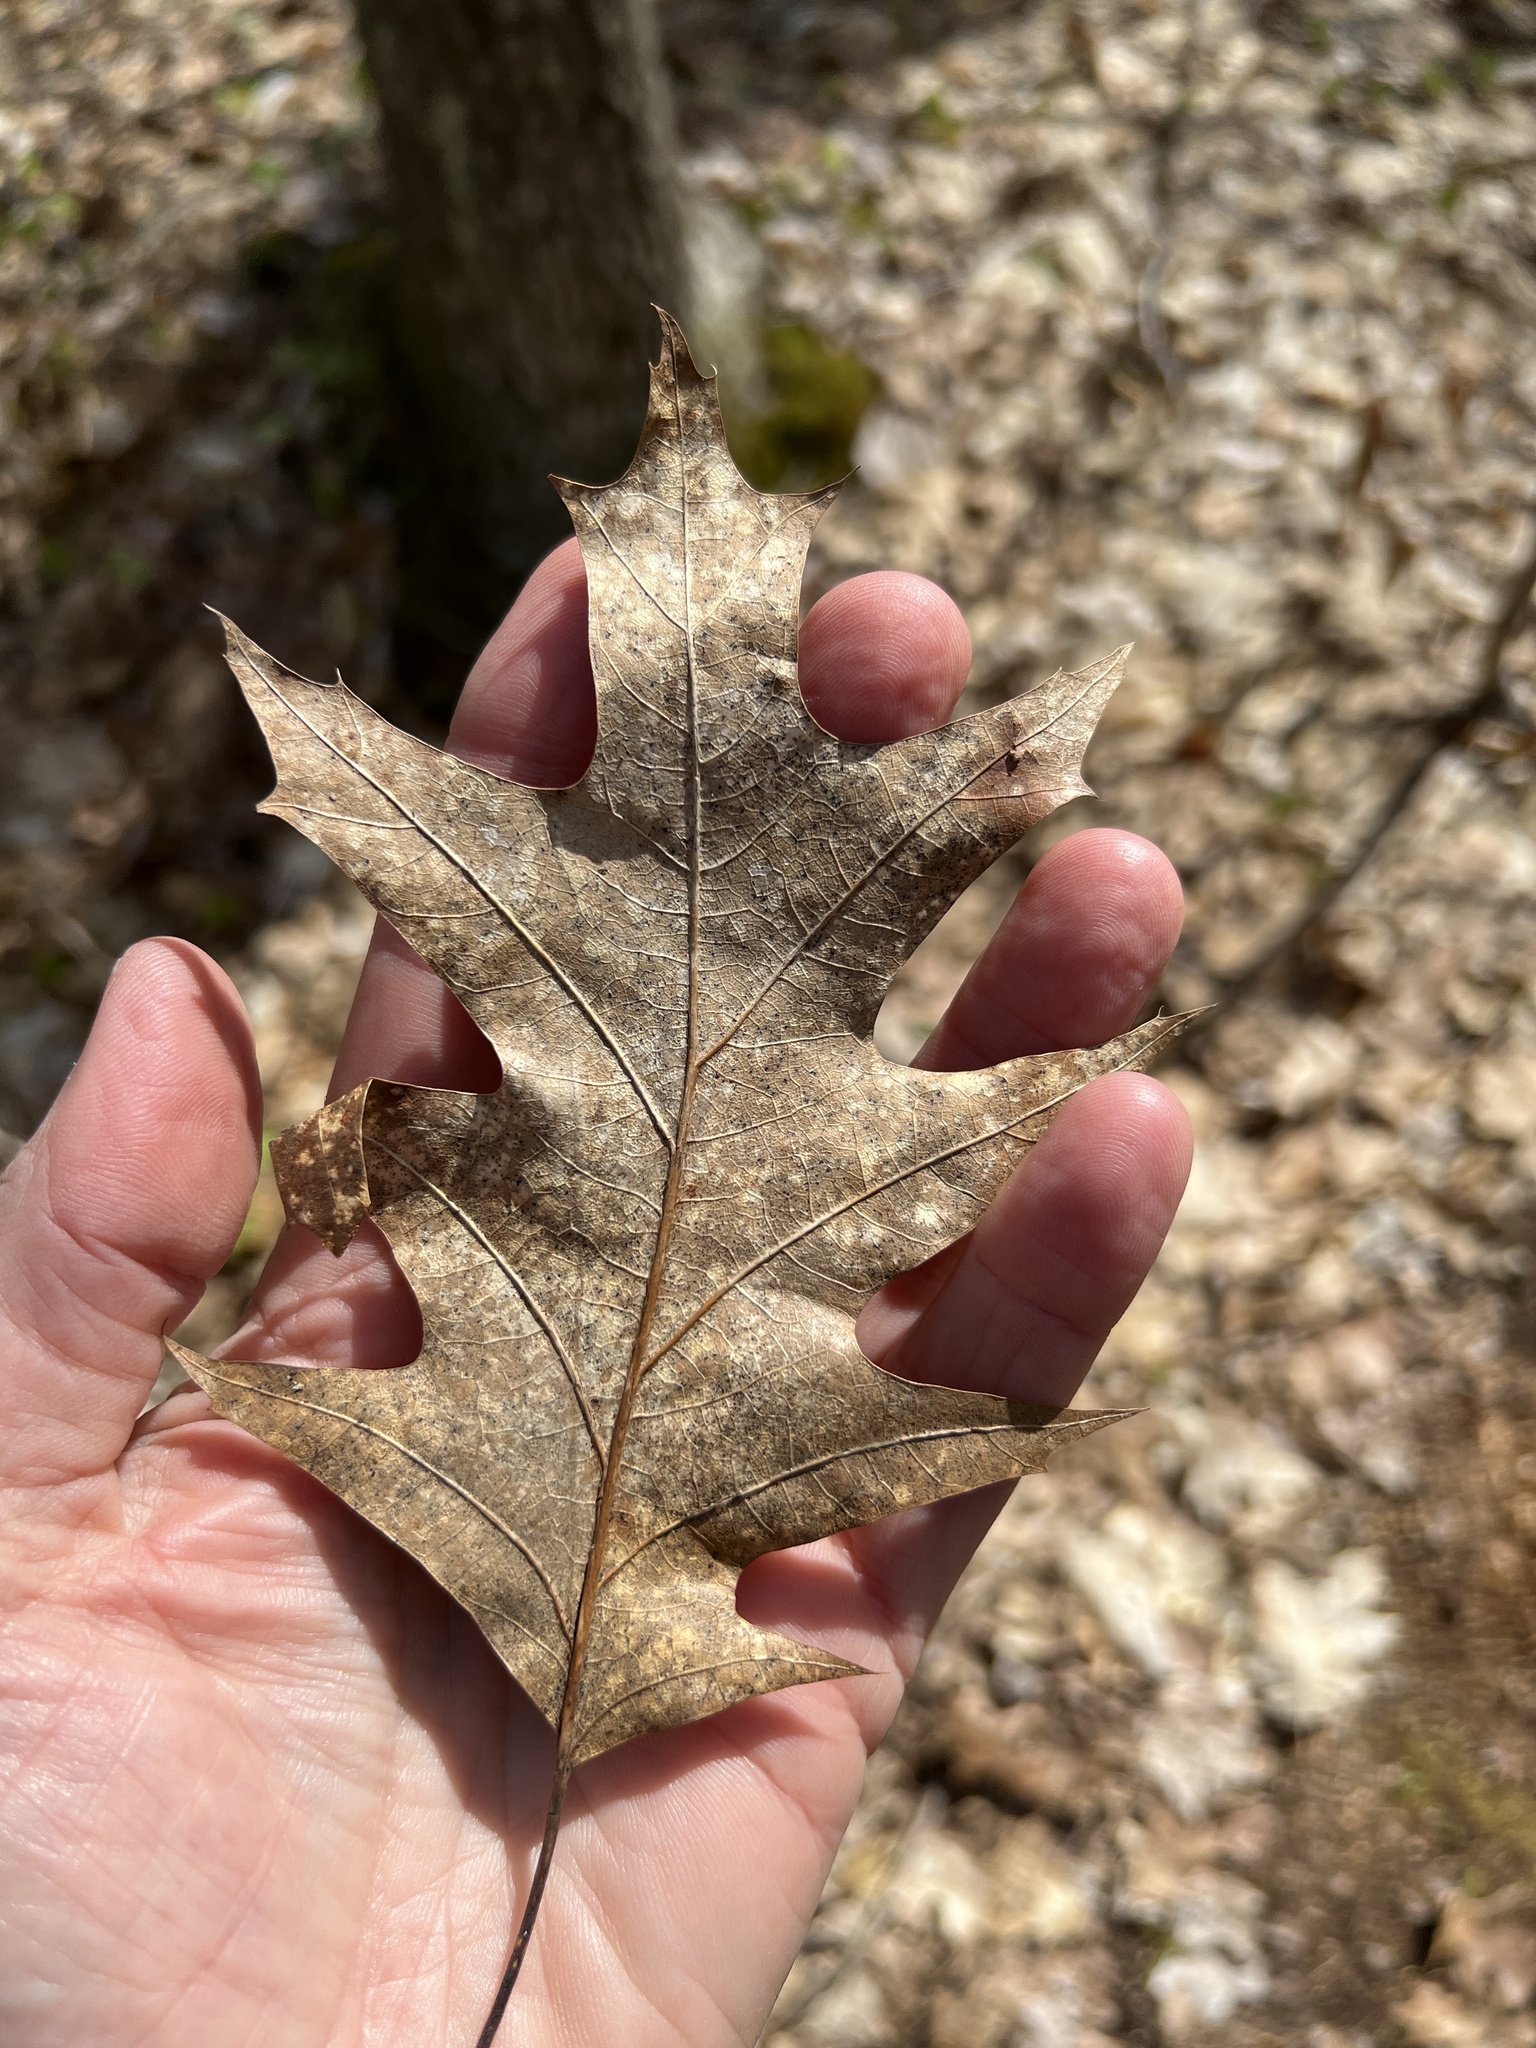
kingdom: Plantae
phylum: Tracheophyta
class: Magnoliopsida
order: Fagales
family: Fagaceae
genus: Quercus
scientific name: Quercus rubra
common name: Red oak
